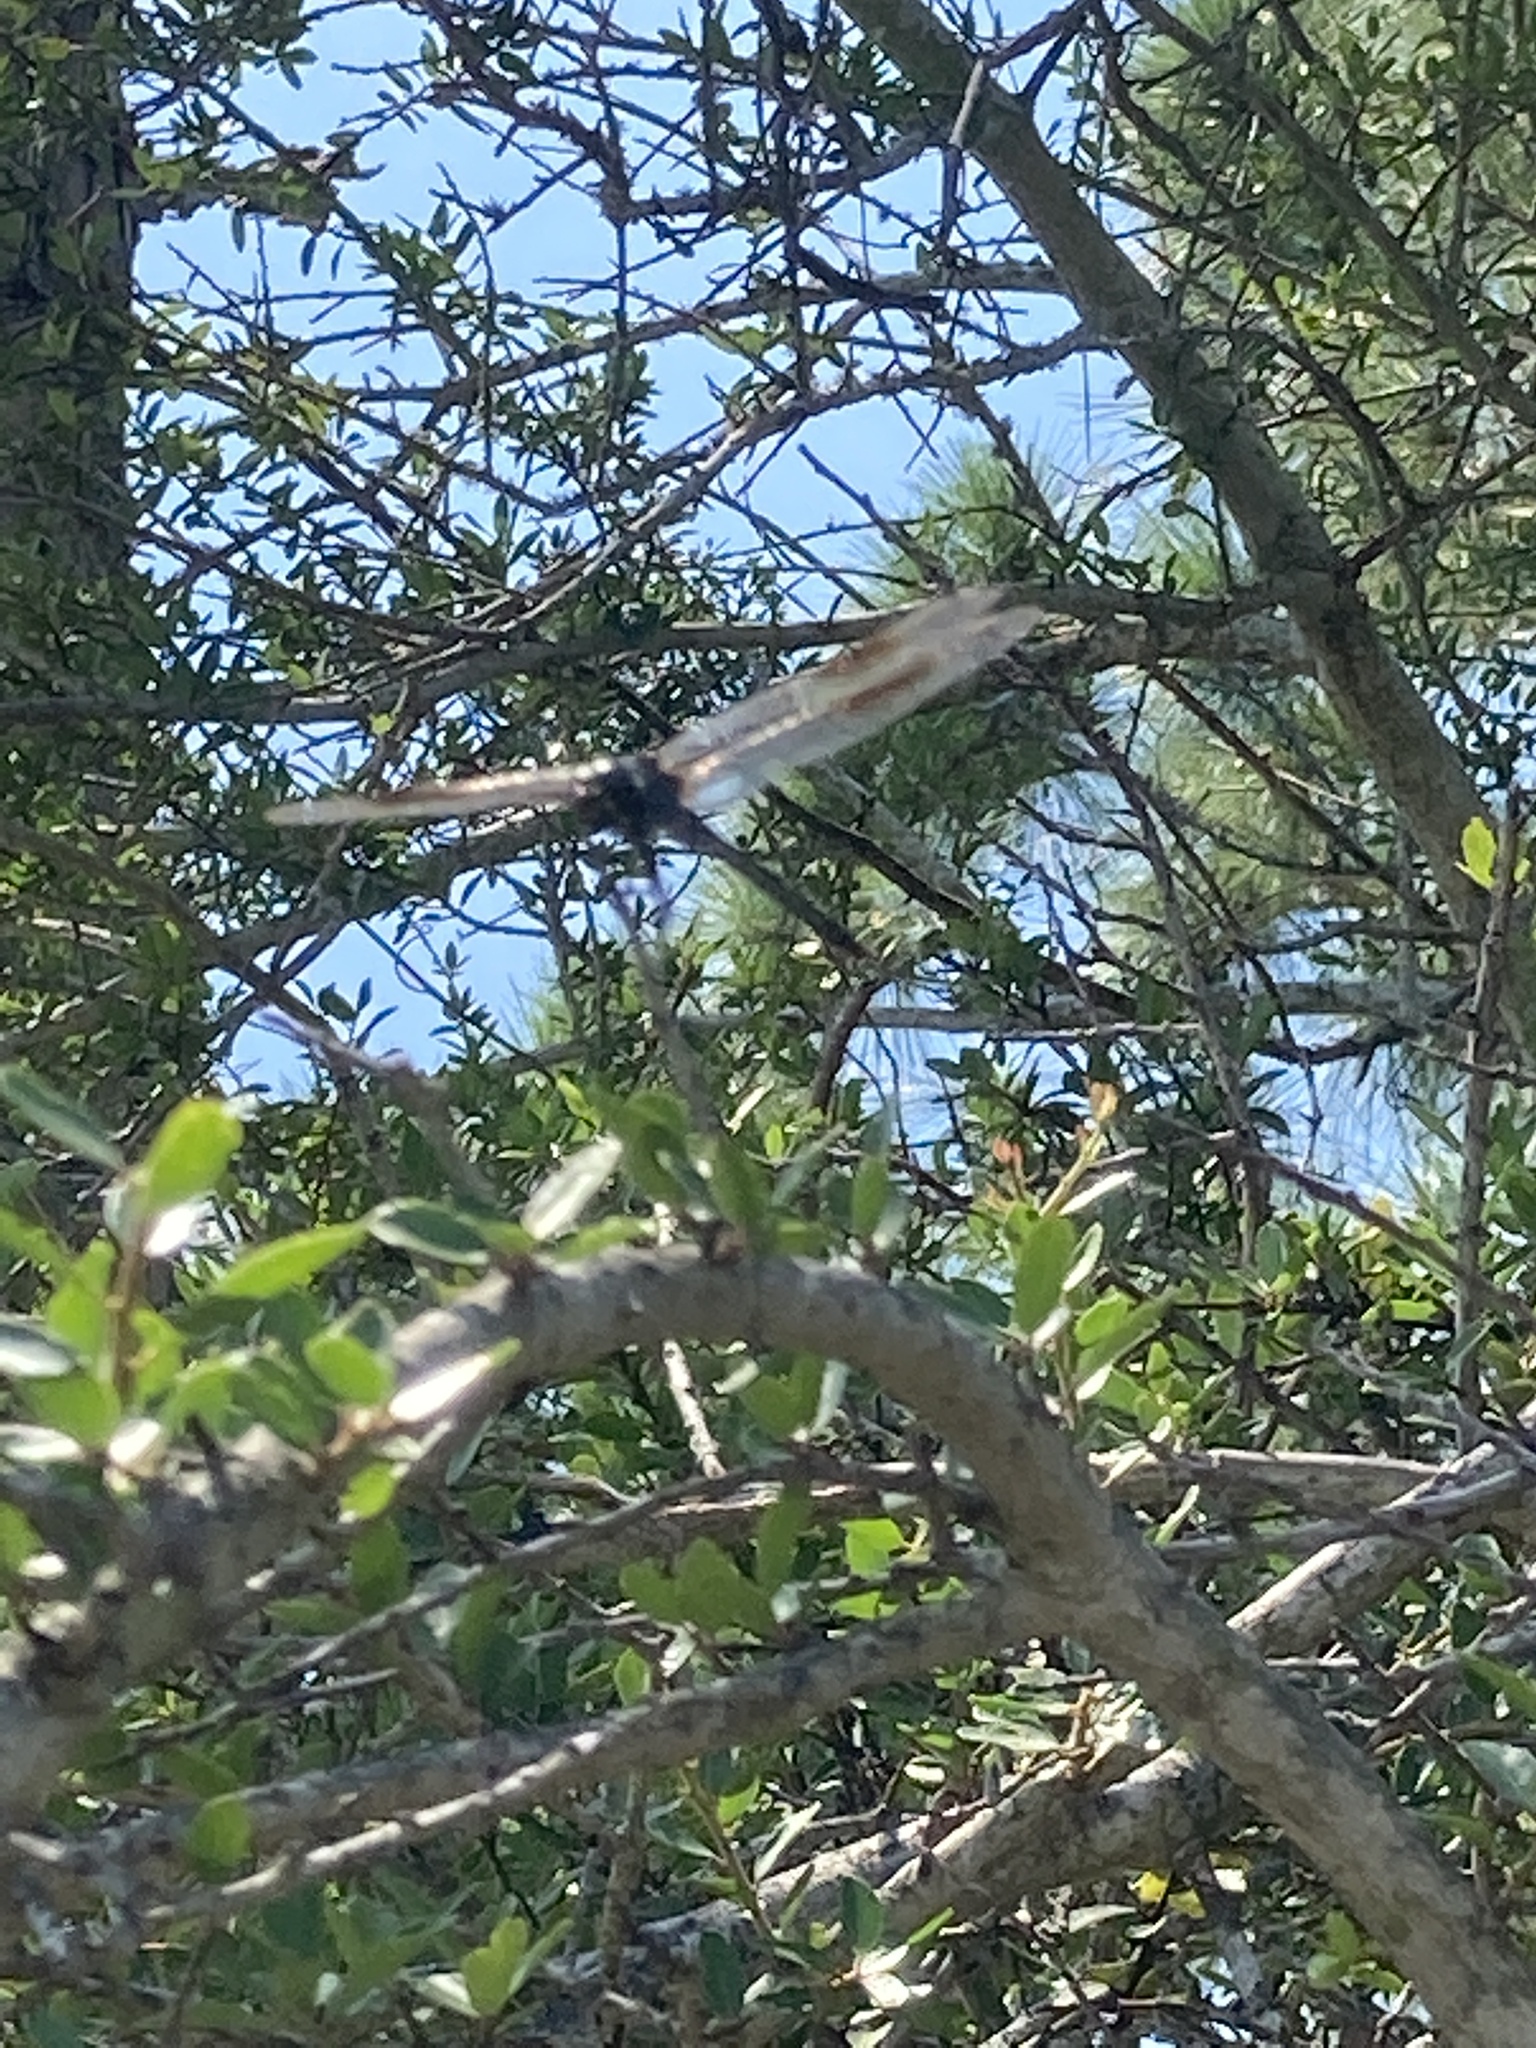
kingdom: Animalia
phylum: Arthropoda
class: Insecta
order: Odonata
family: Libellulidae
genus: Brachymesia
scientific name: Brachymesia gravida
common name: Four-spotted pennant
